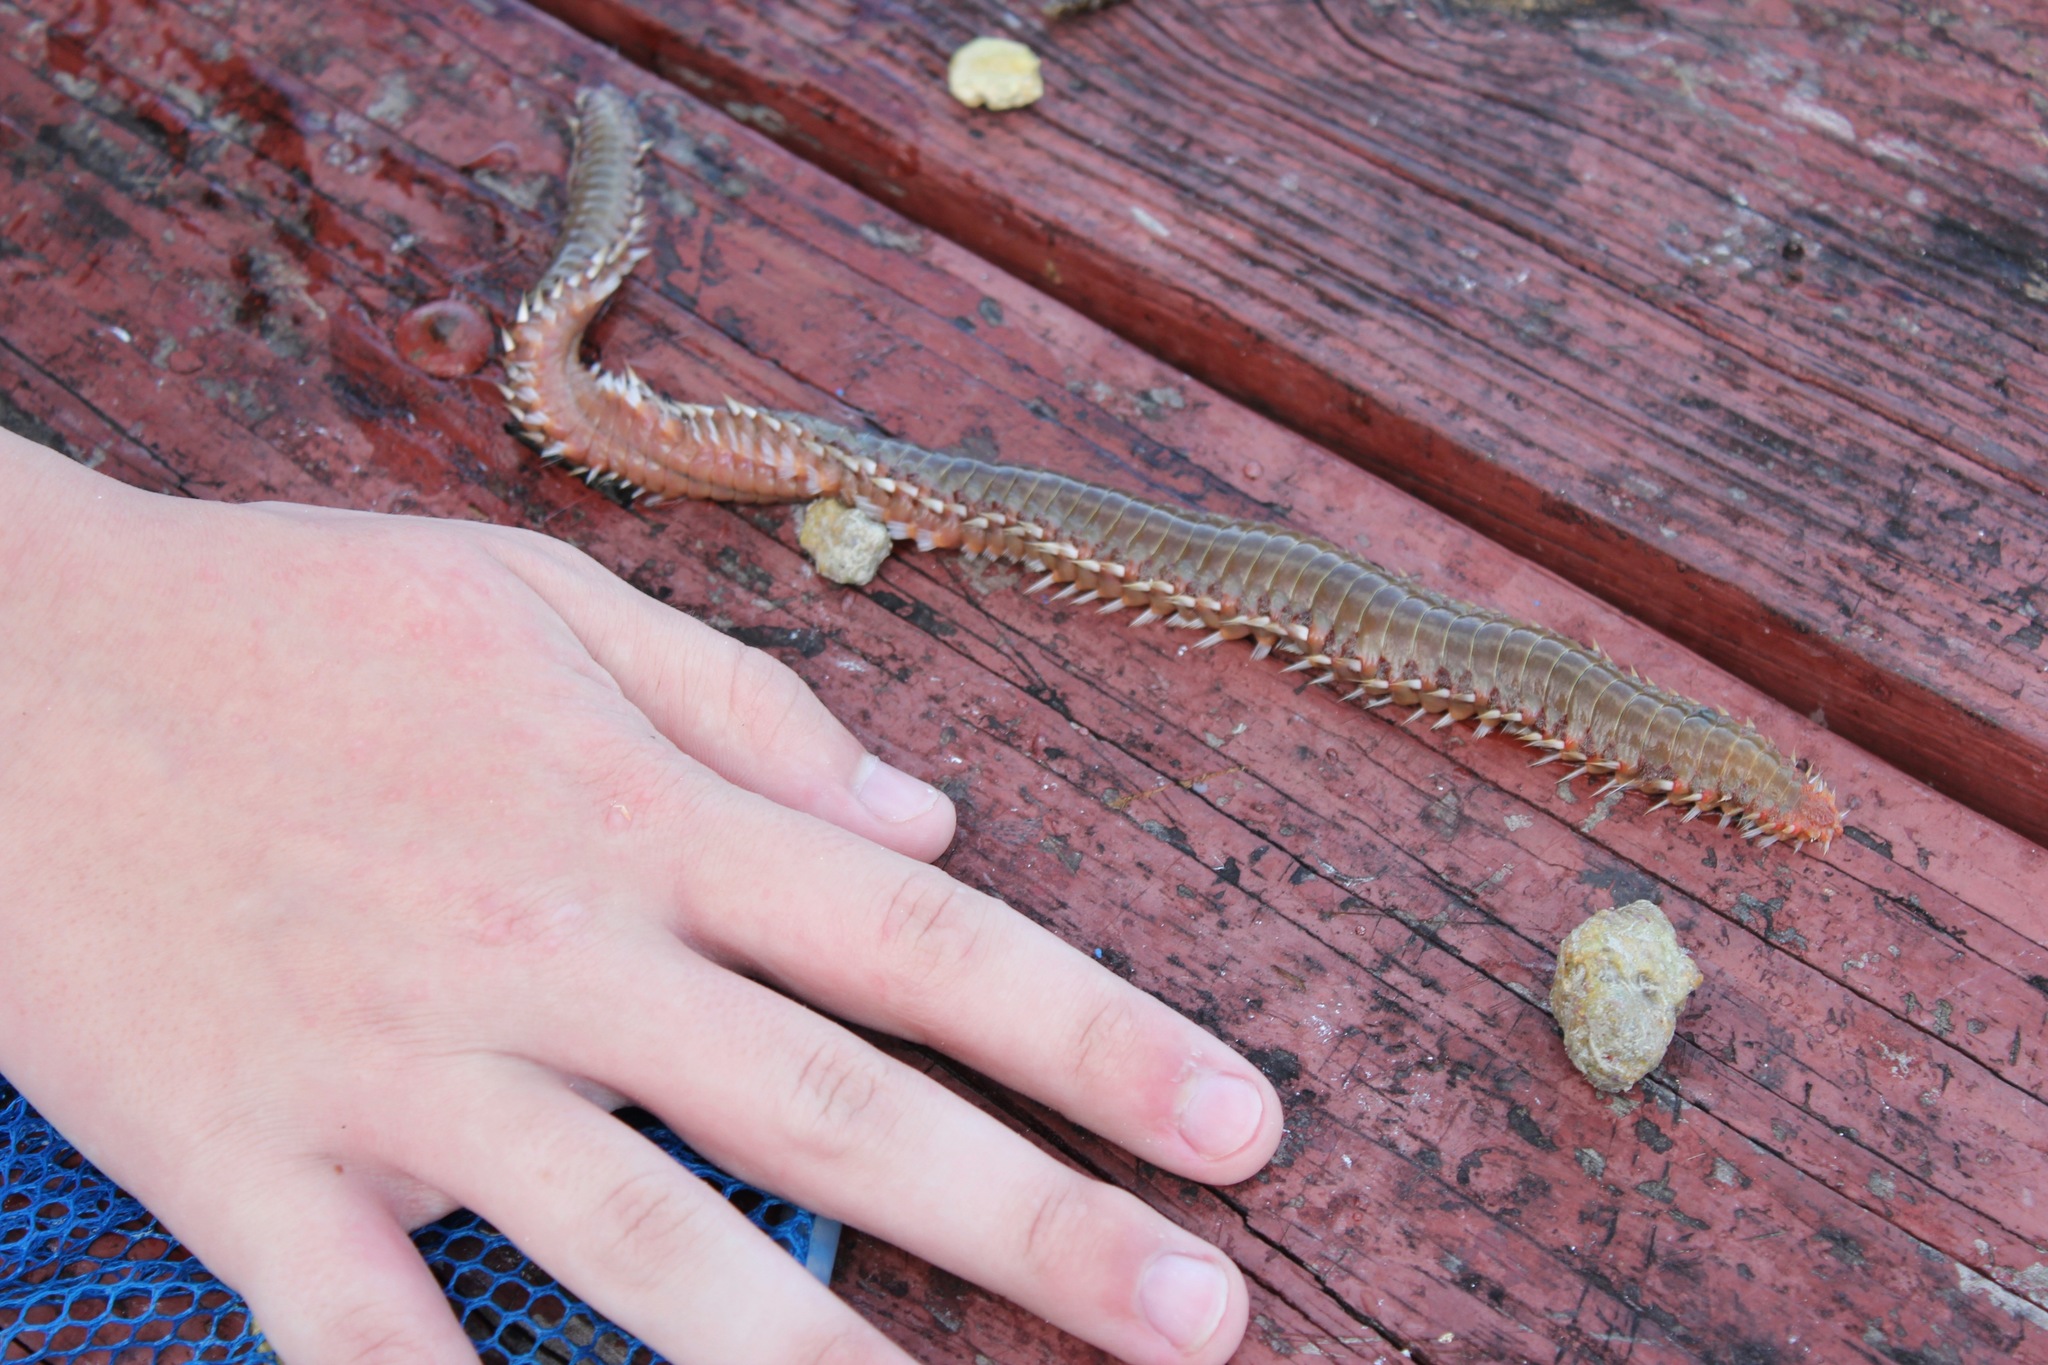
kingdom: Animalia
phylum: Annelida
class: Polychaeta
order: Amphinomida
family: Amphinomidae
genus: Hermodice
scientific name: Hermodice carunculata
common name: Bearded fireworm
